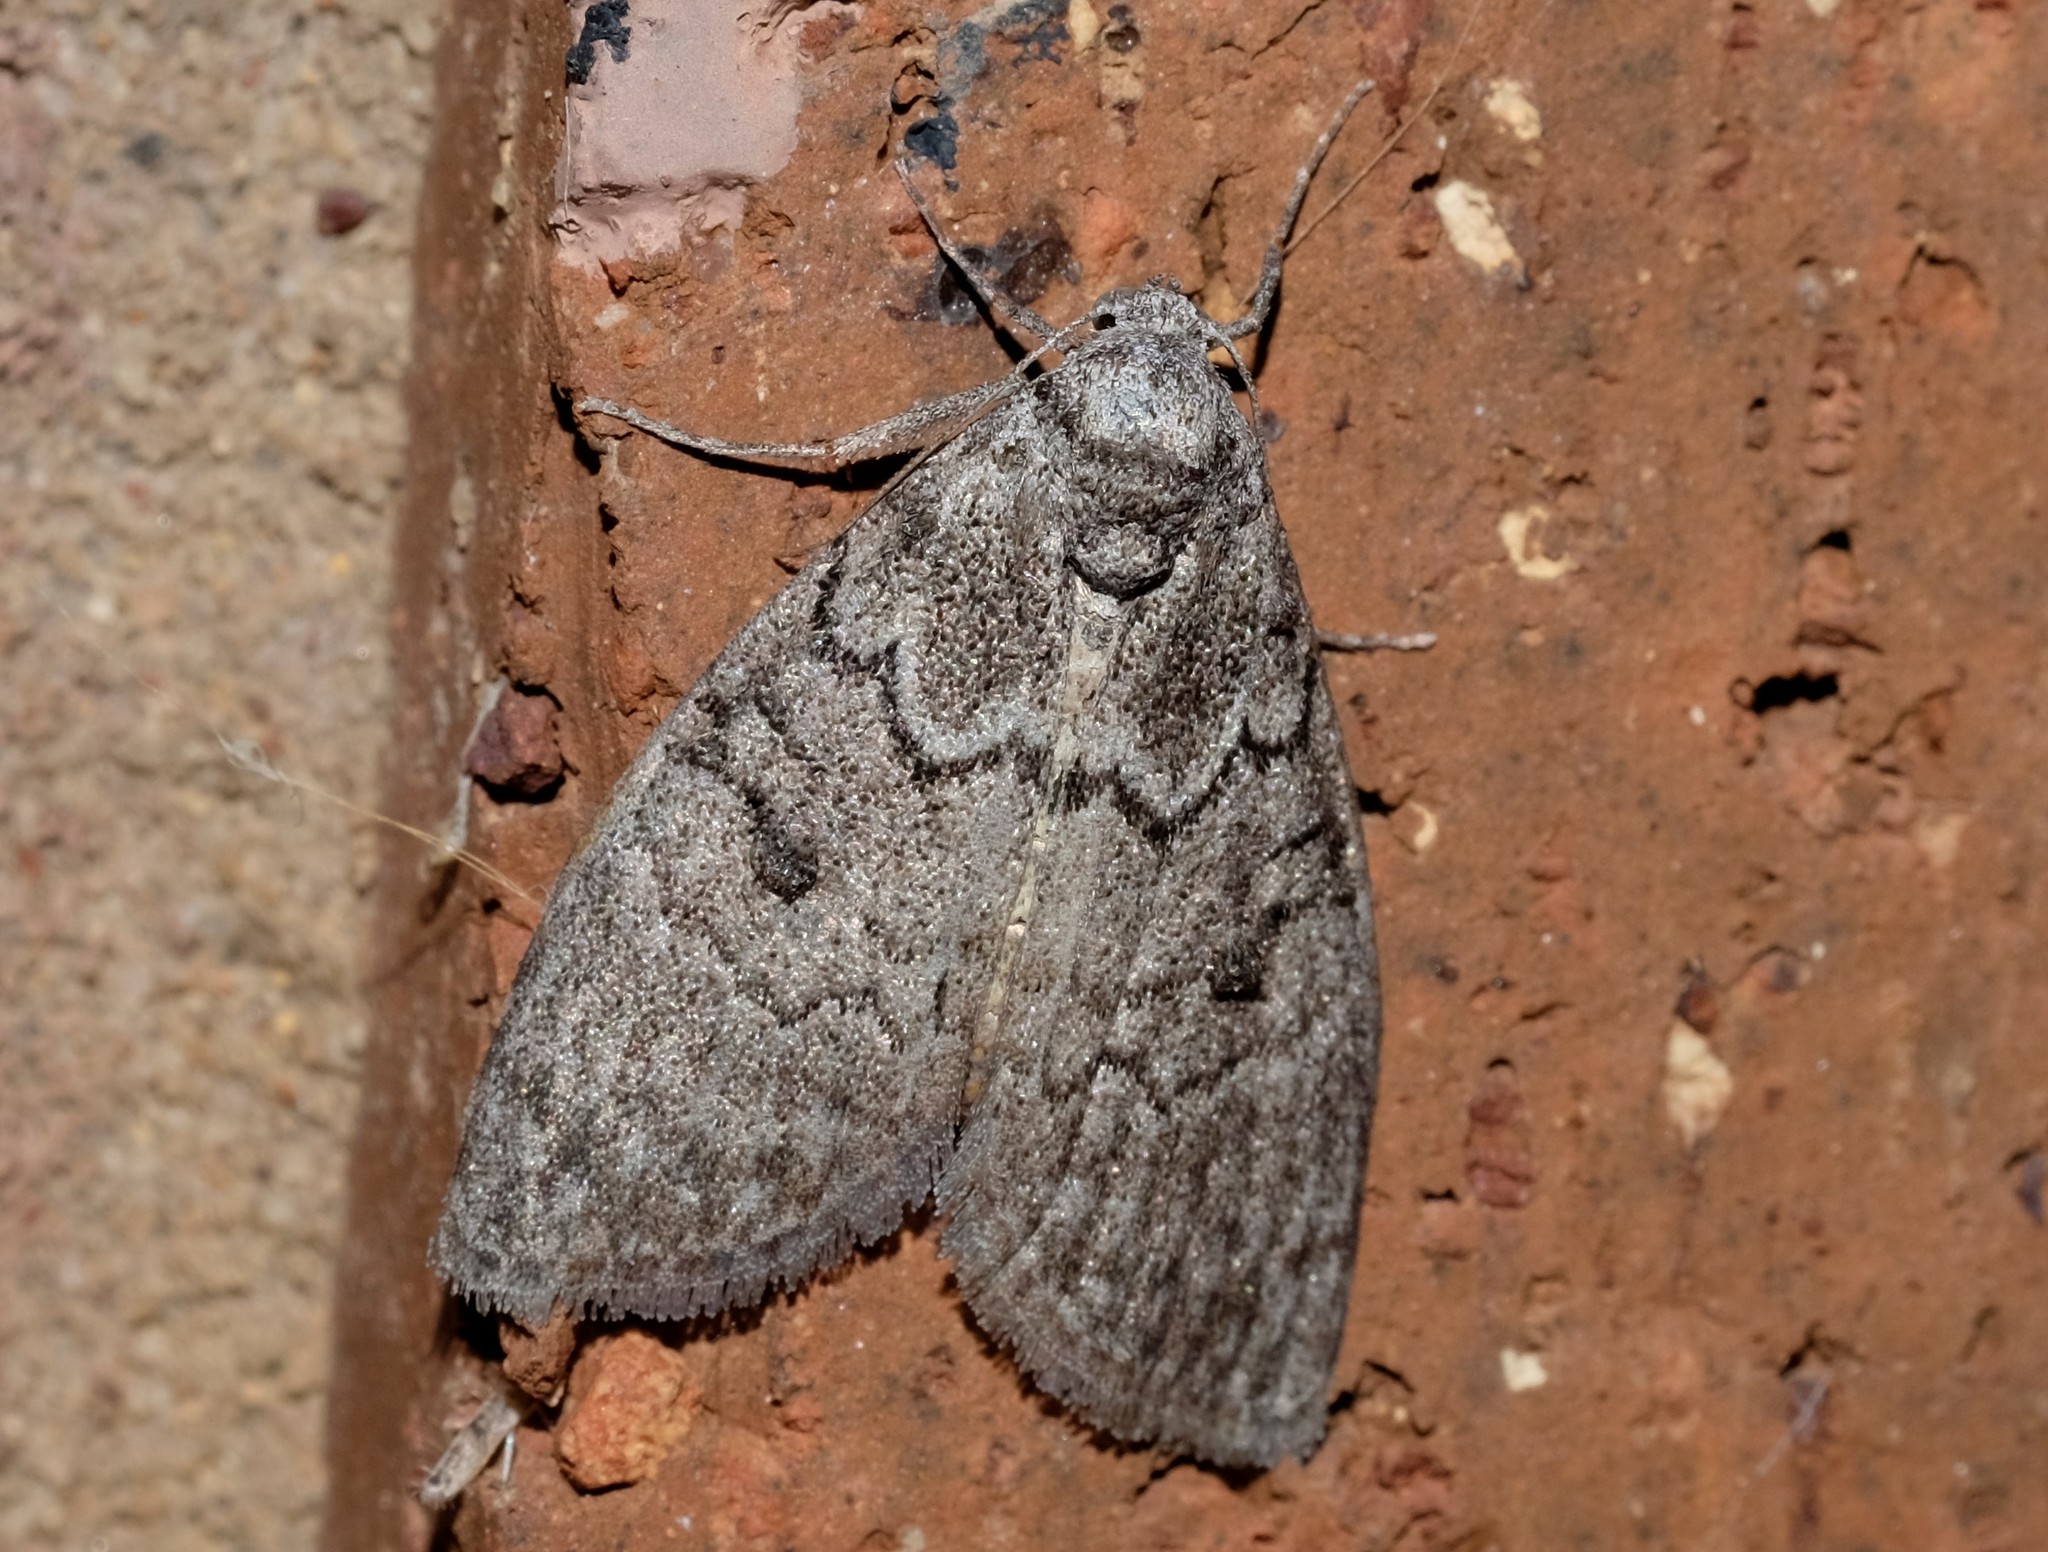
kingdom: Animalia
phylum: Arthropoda
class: Insecta
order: Lepidoptera
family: Nolidae
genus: Uraba
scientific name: Uraba lugens
